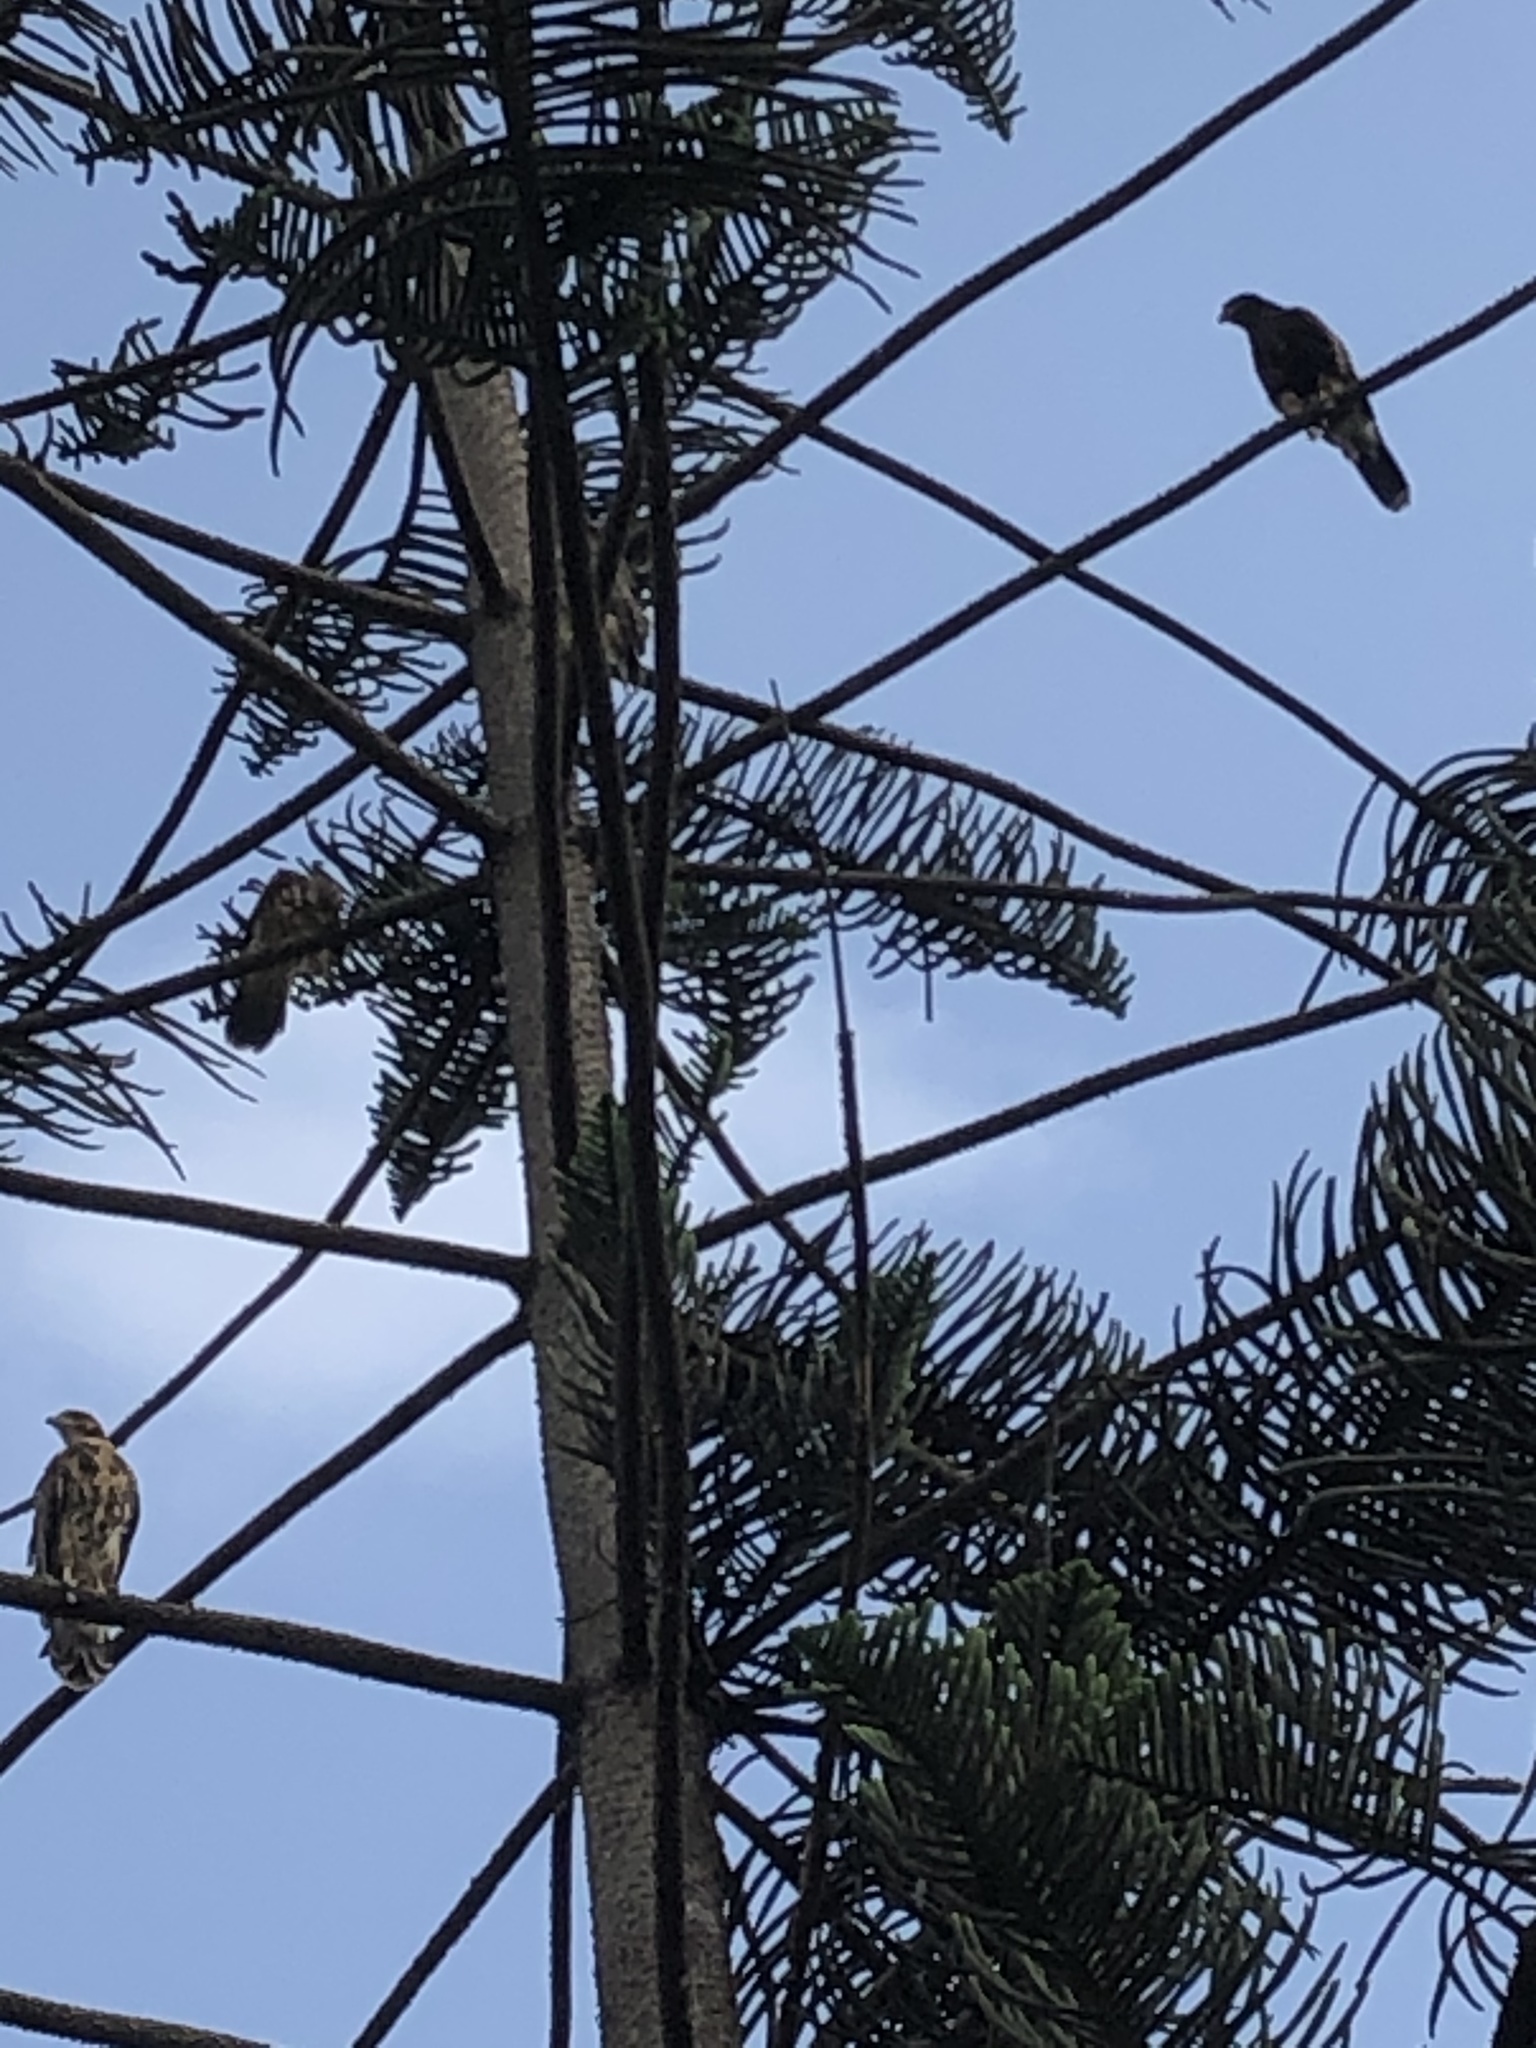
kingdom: Animalia
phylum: Chordata
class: Aves
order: Accipitriformes
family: Accipitridae
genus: Parabuteo
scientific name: Parabuteo unicinctus
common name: Harris's hawk
